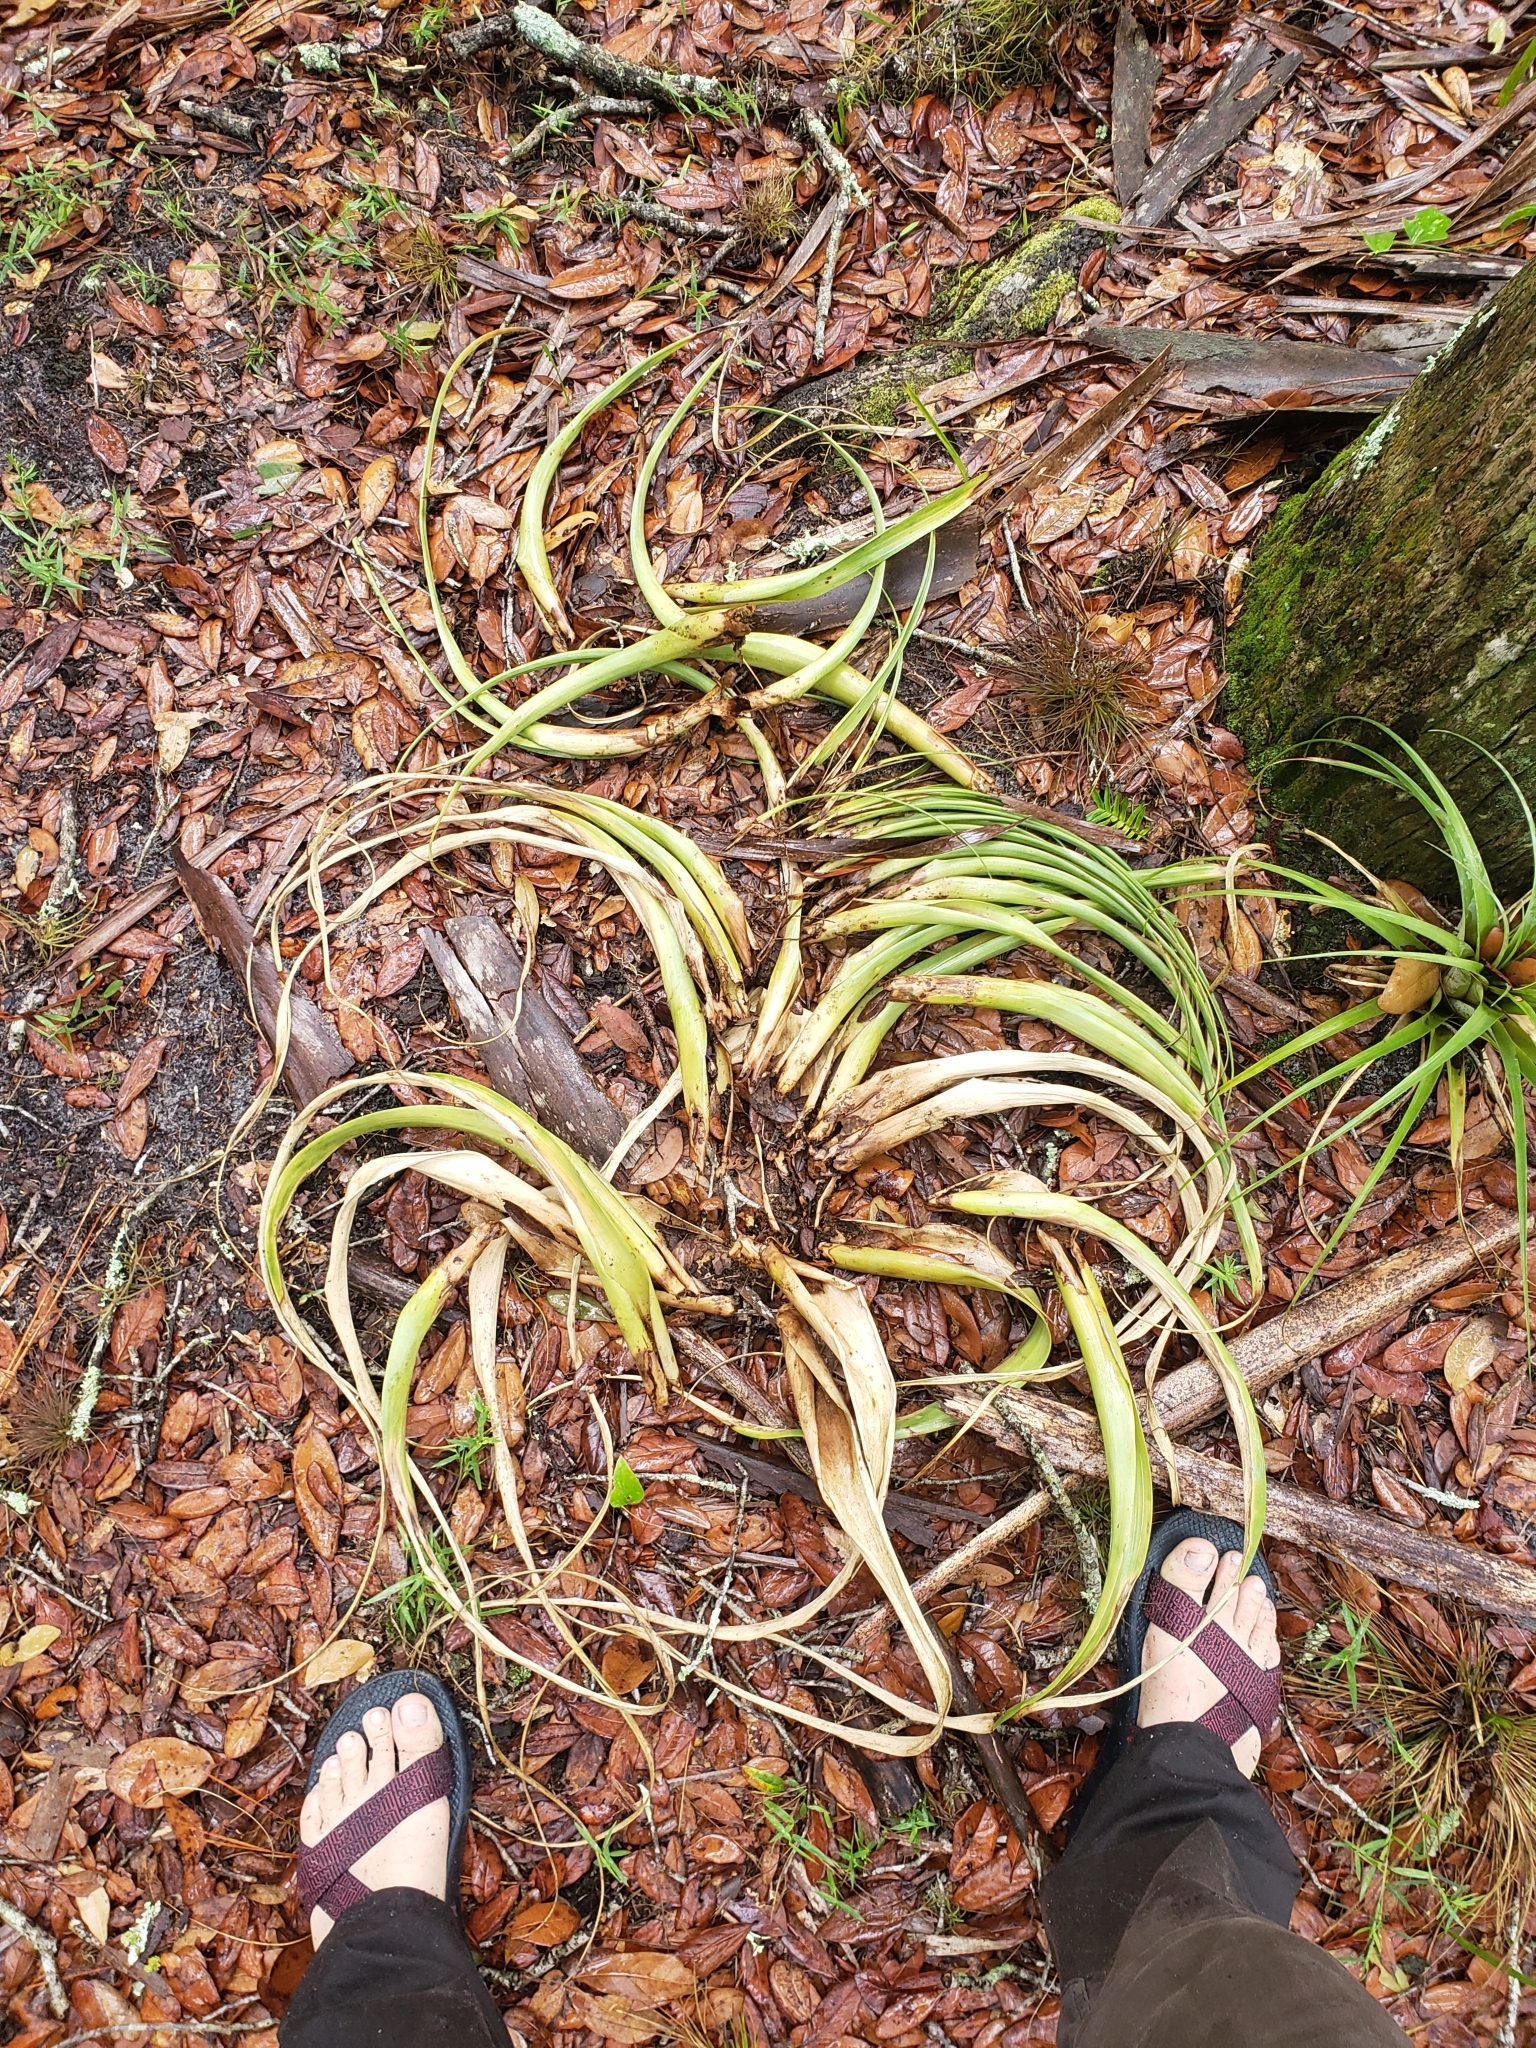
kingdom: Plantae
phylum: Tracheophyta
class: Liliopsida
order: Poales
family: Bromeliaceae
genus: Tillandsia
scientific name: Tillandsia utriculata
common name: Wild pine
